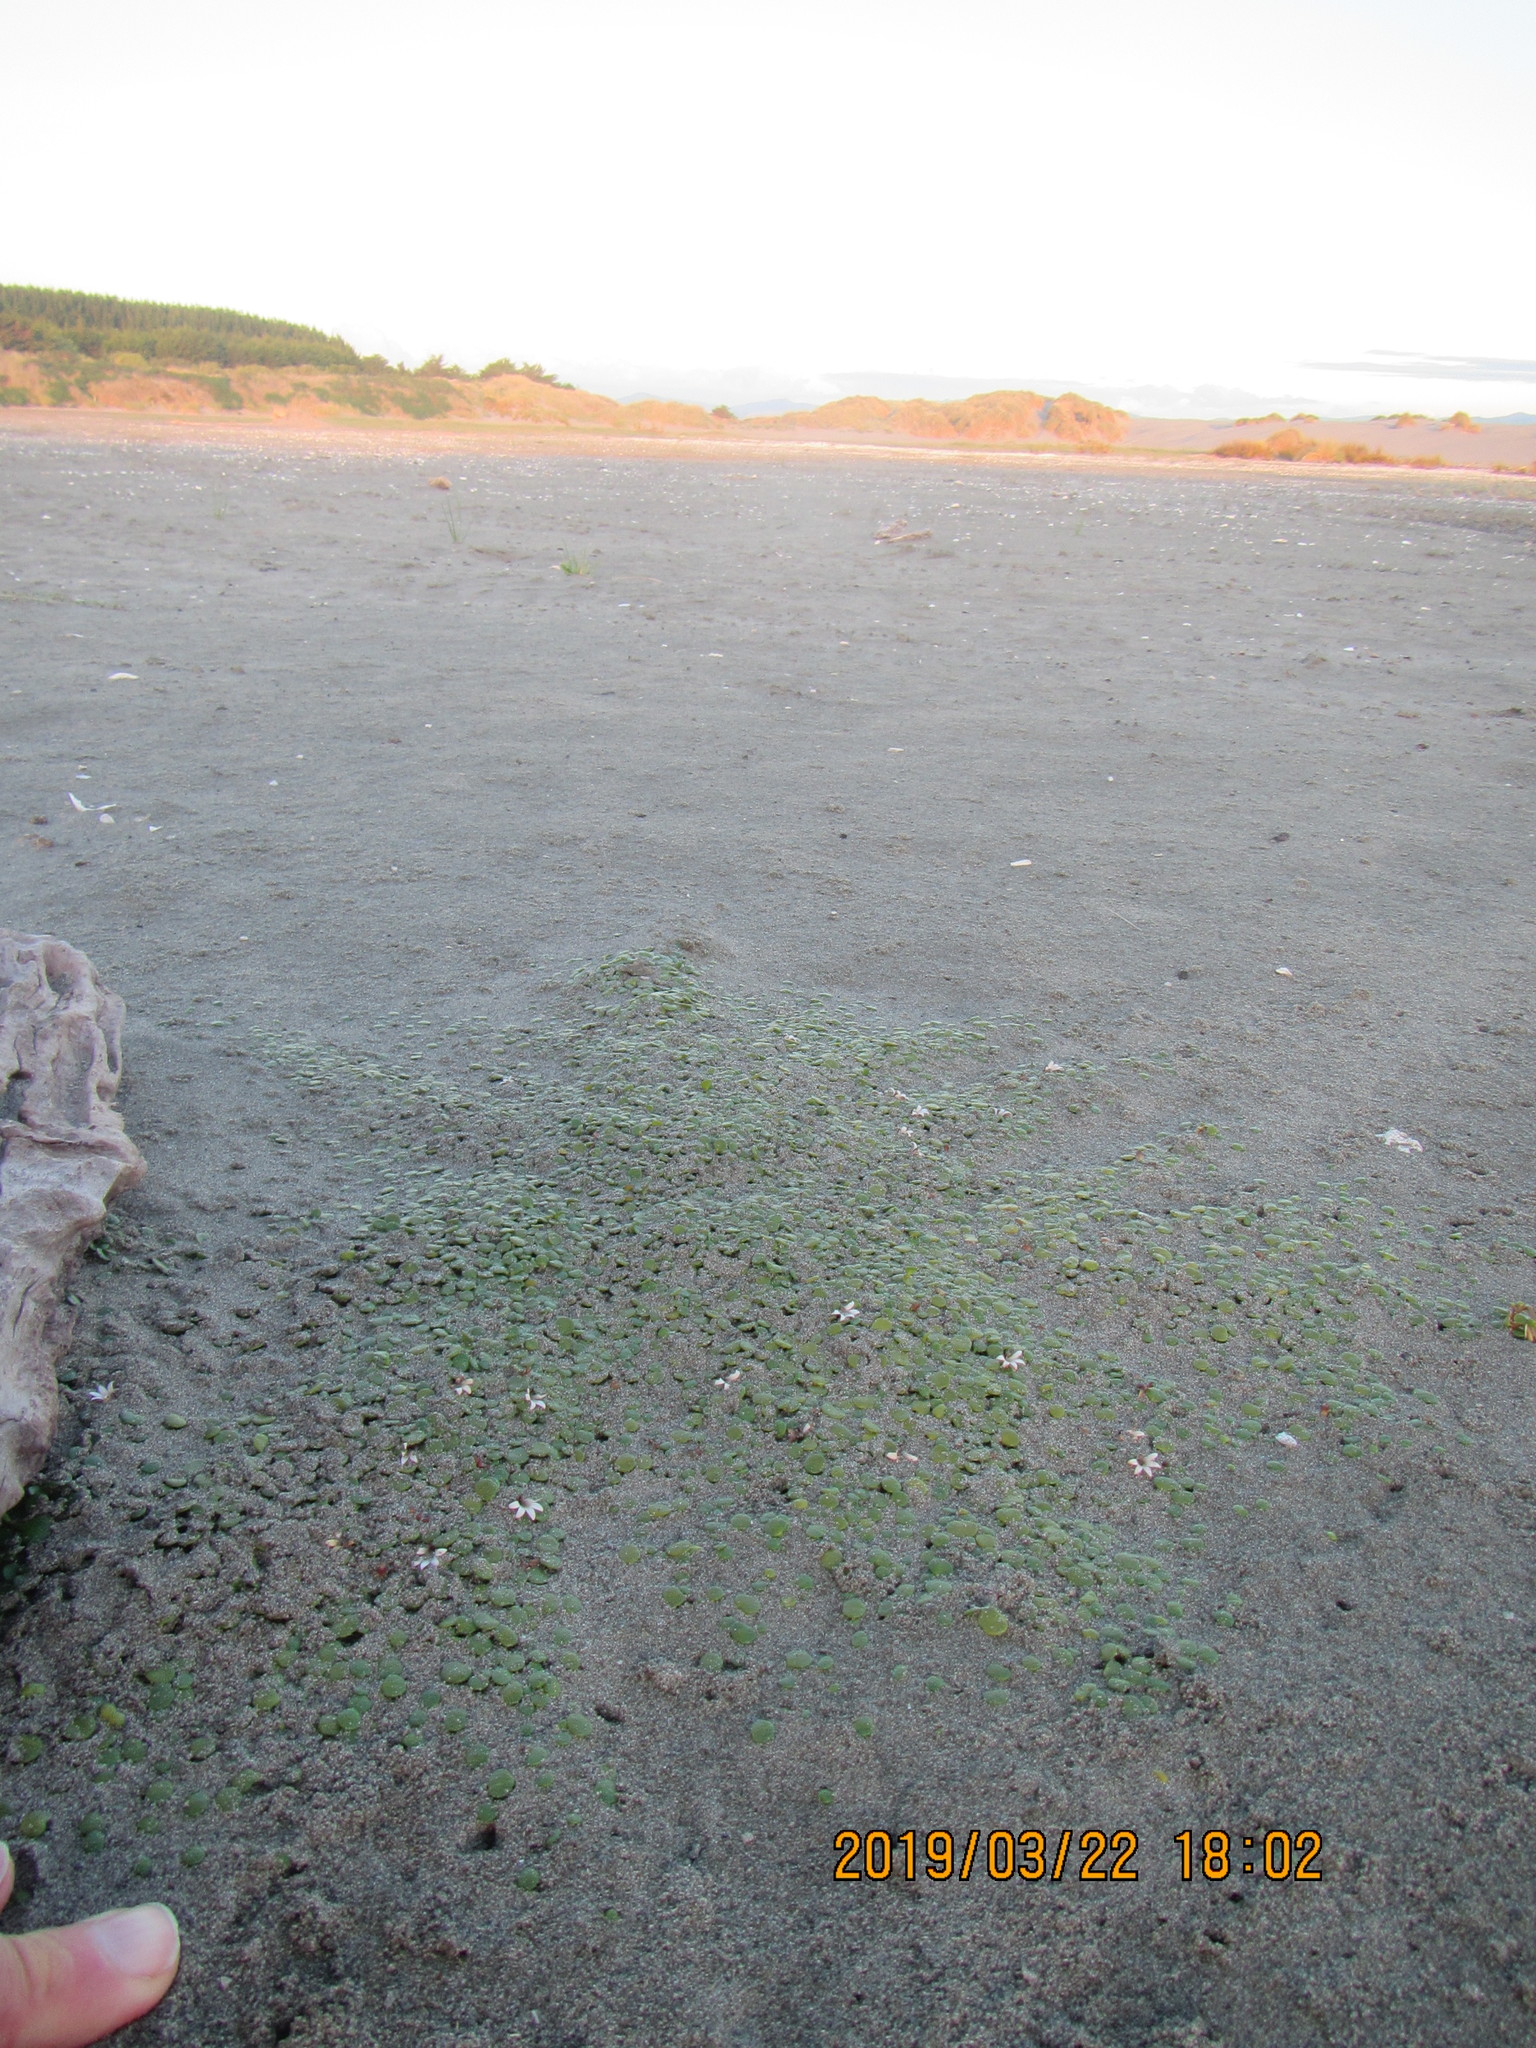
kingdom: Plantae
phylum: Tracheophyta
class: Magnoliopsida
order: Asterales
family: Goodeniaceae
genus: Goodenia
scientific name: Goodenia heenanii
